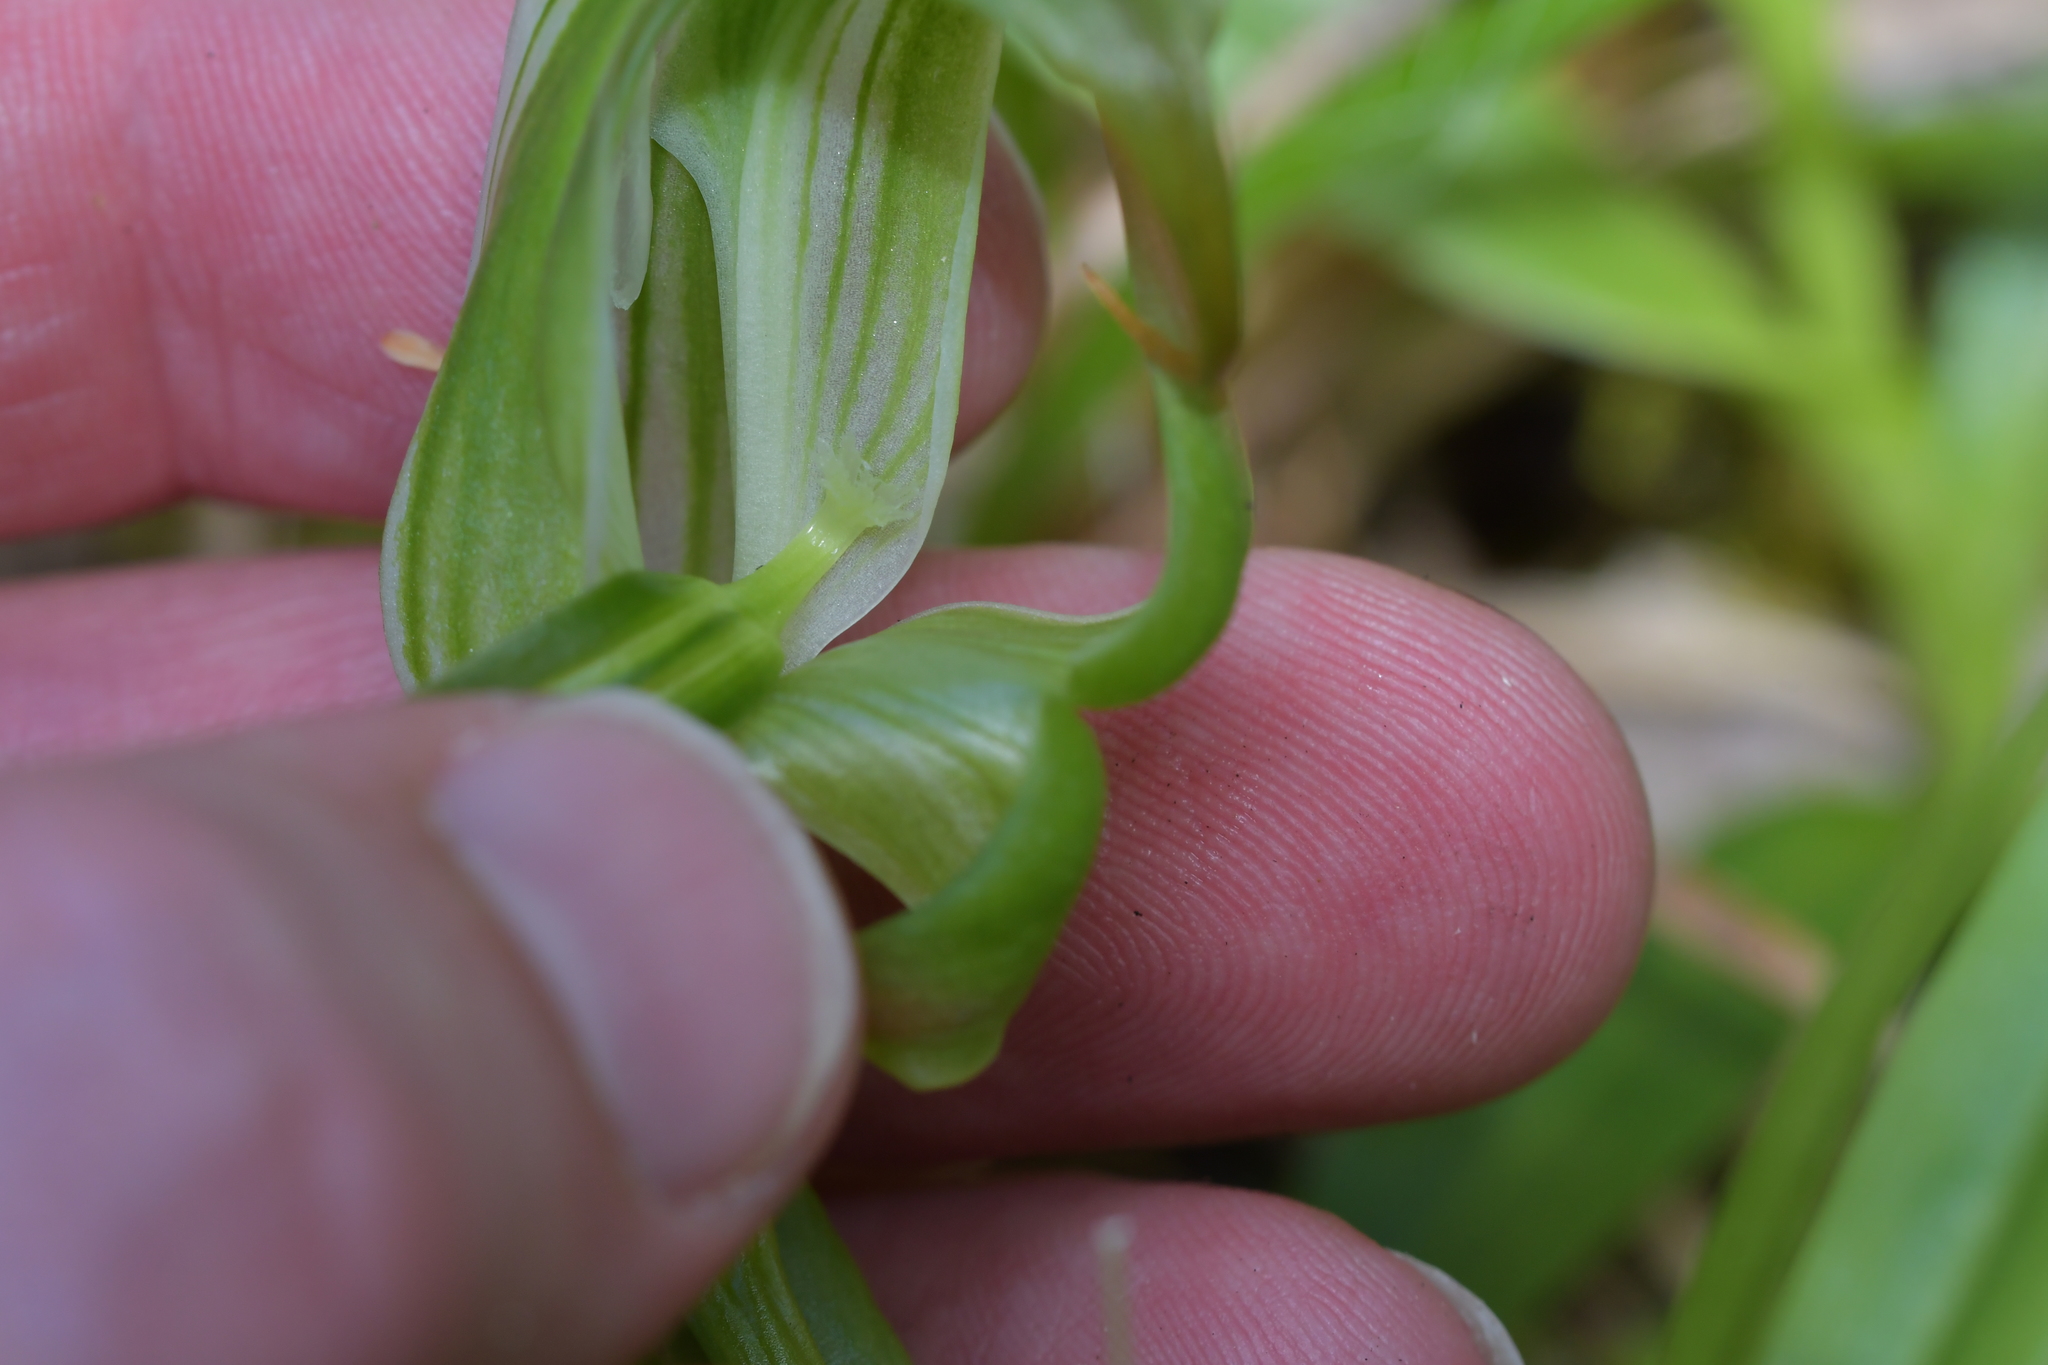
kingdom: Plantae
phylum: Tracheophyta
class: Liliopsida
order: Asparagales
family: Orchidaceae
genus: Pterostylis
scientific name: Pterostylis patens
